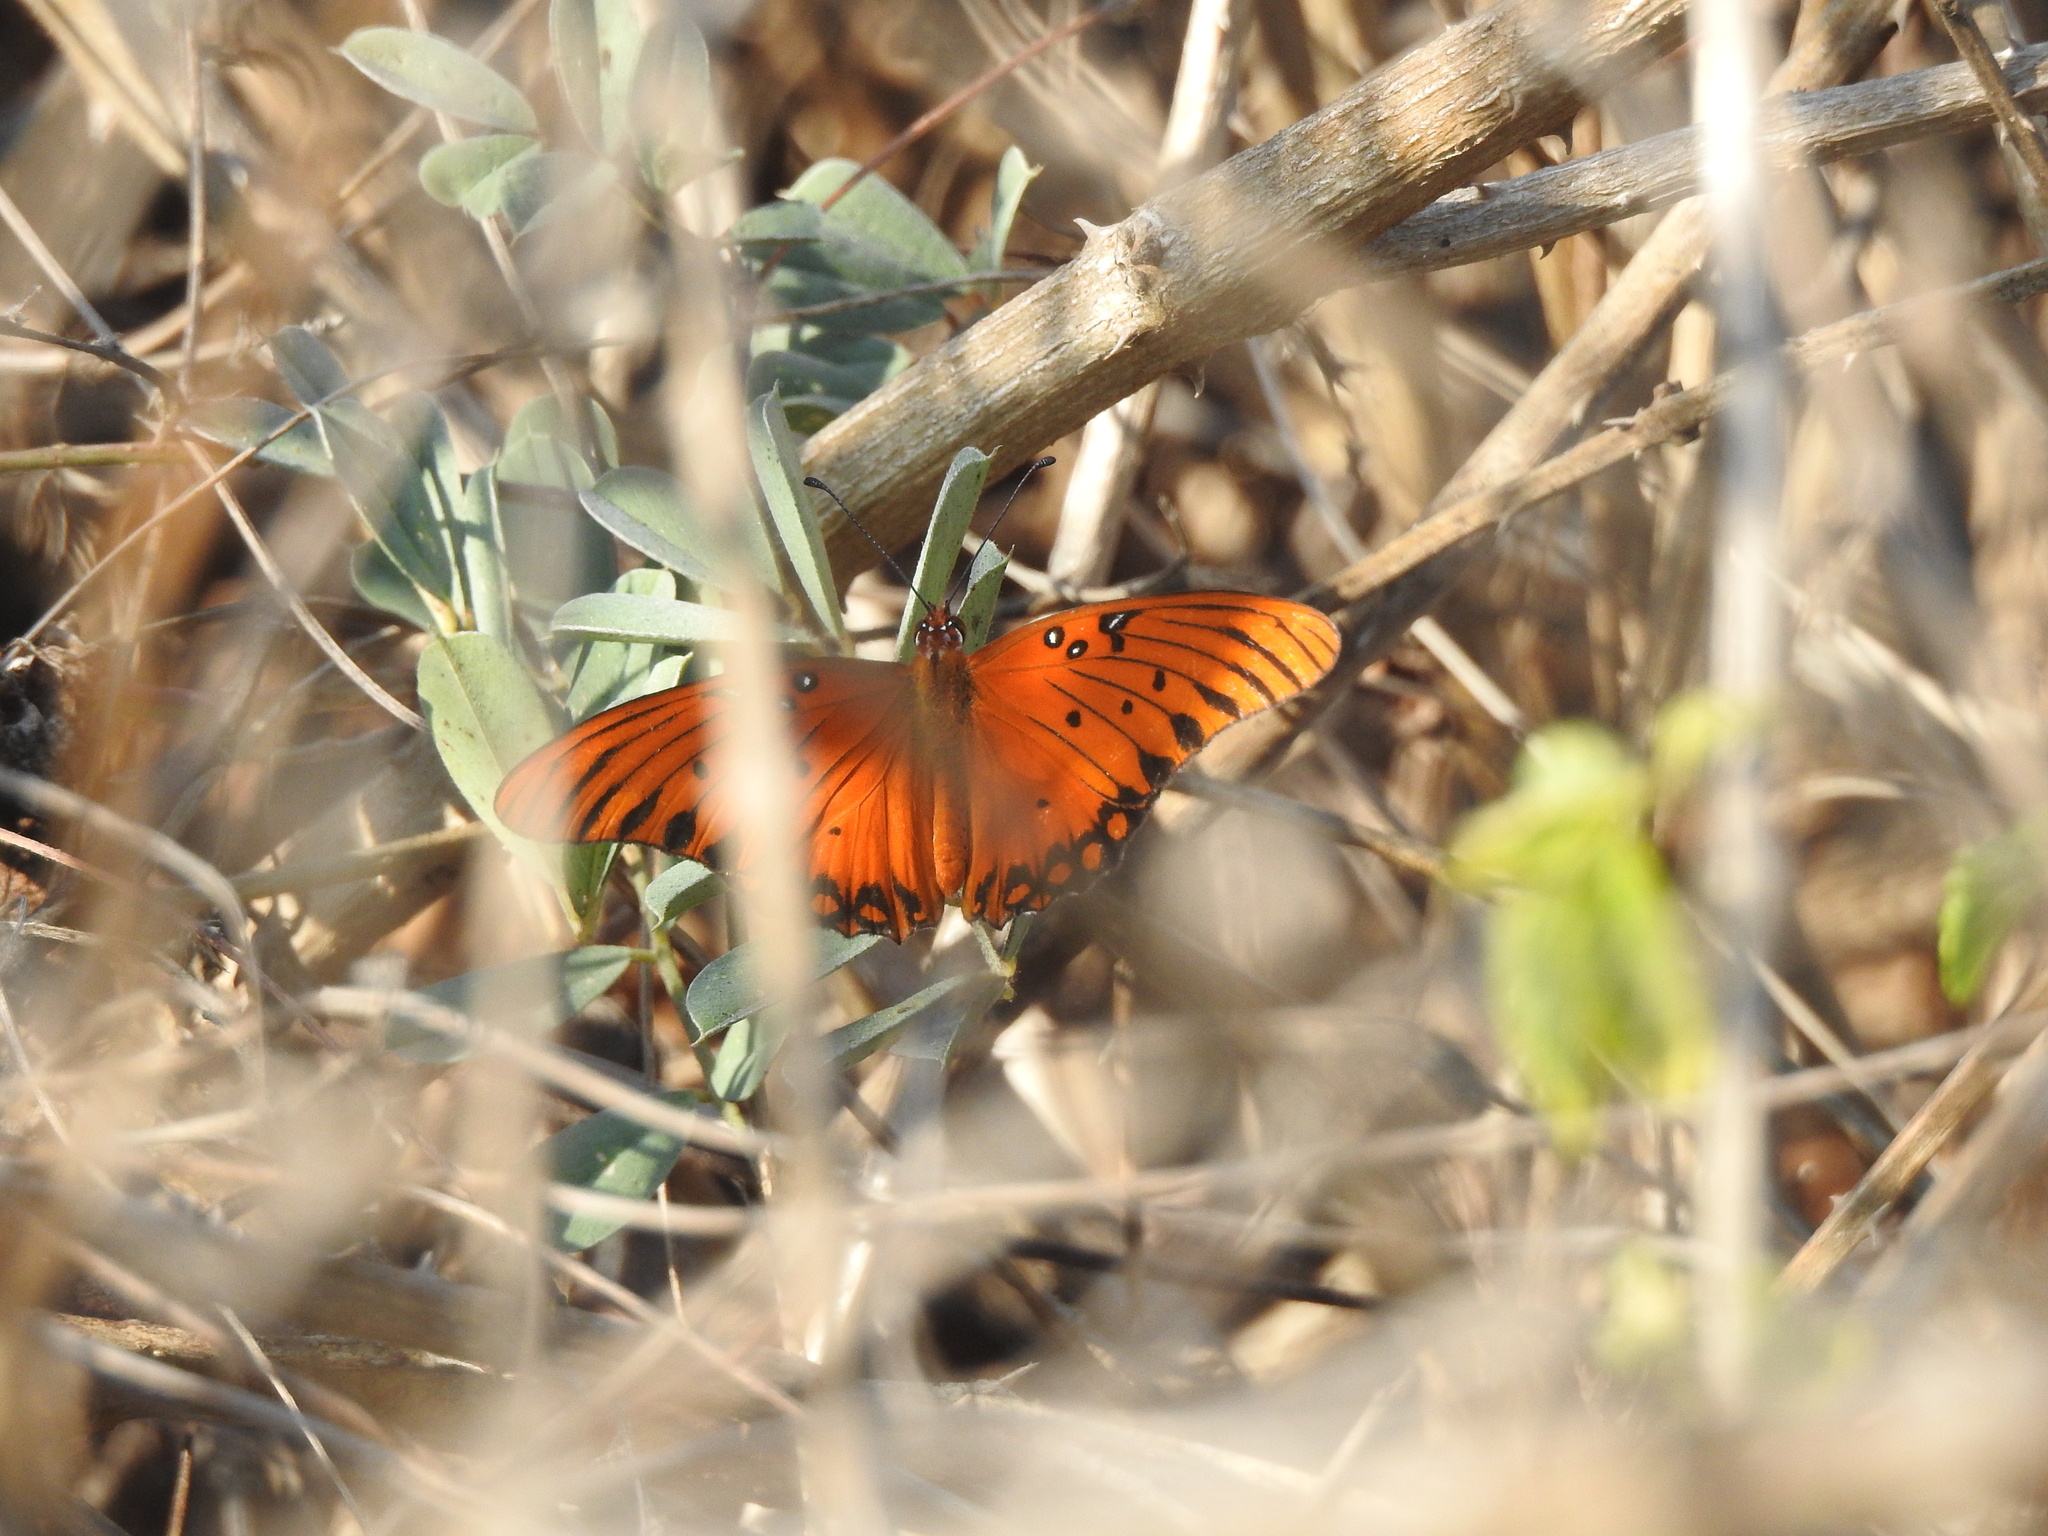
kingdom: Animalia
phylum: Arthropoda
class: Insecta
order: Lepidoptera
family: Nymphalidae
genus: Dione
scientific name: Dione vanillae
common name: Gulf fritillary
